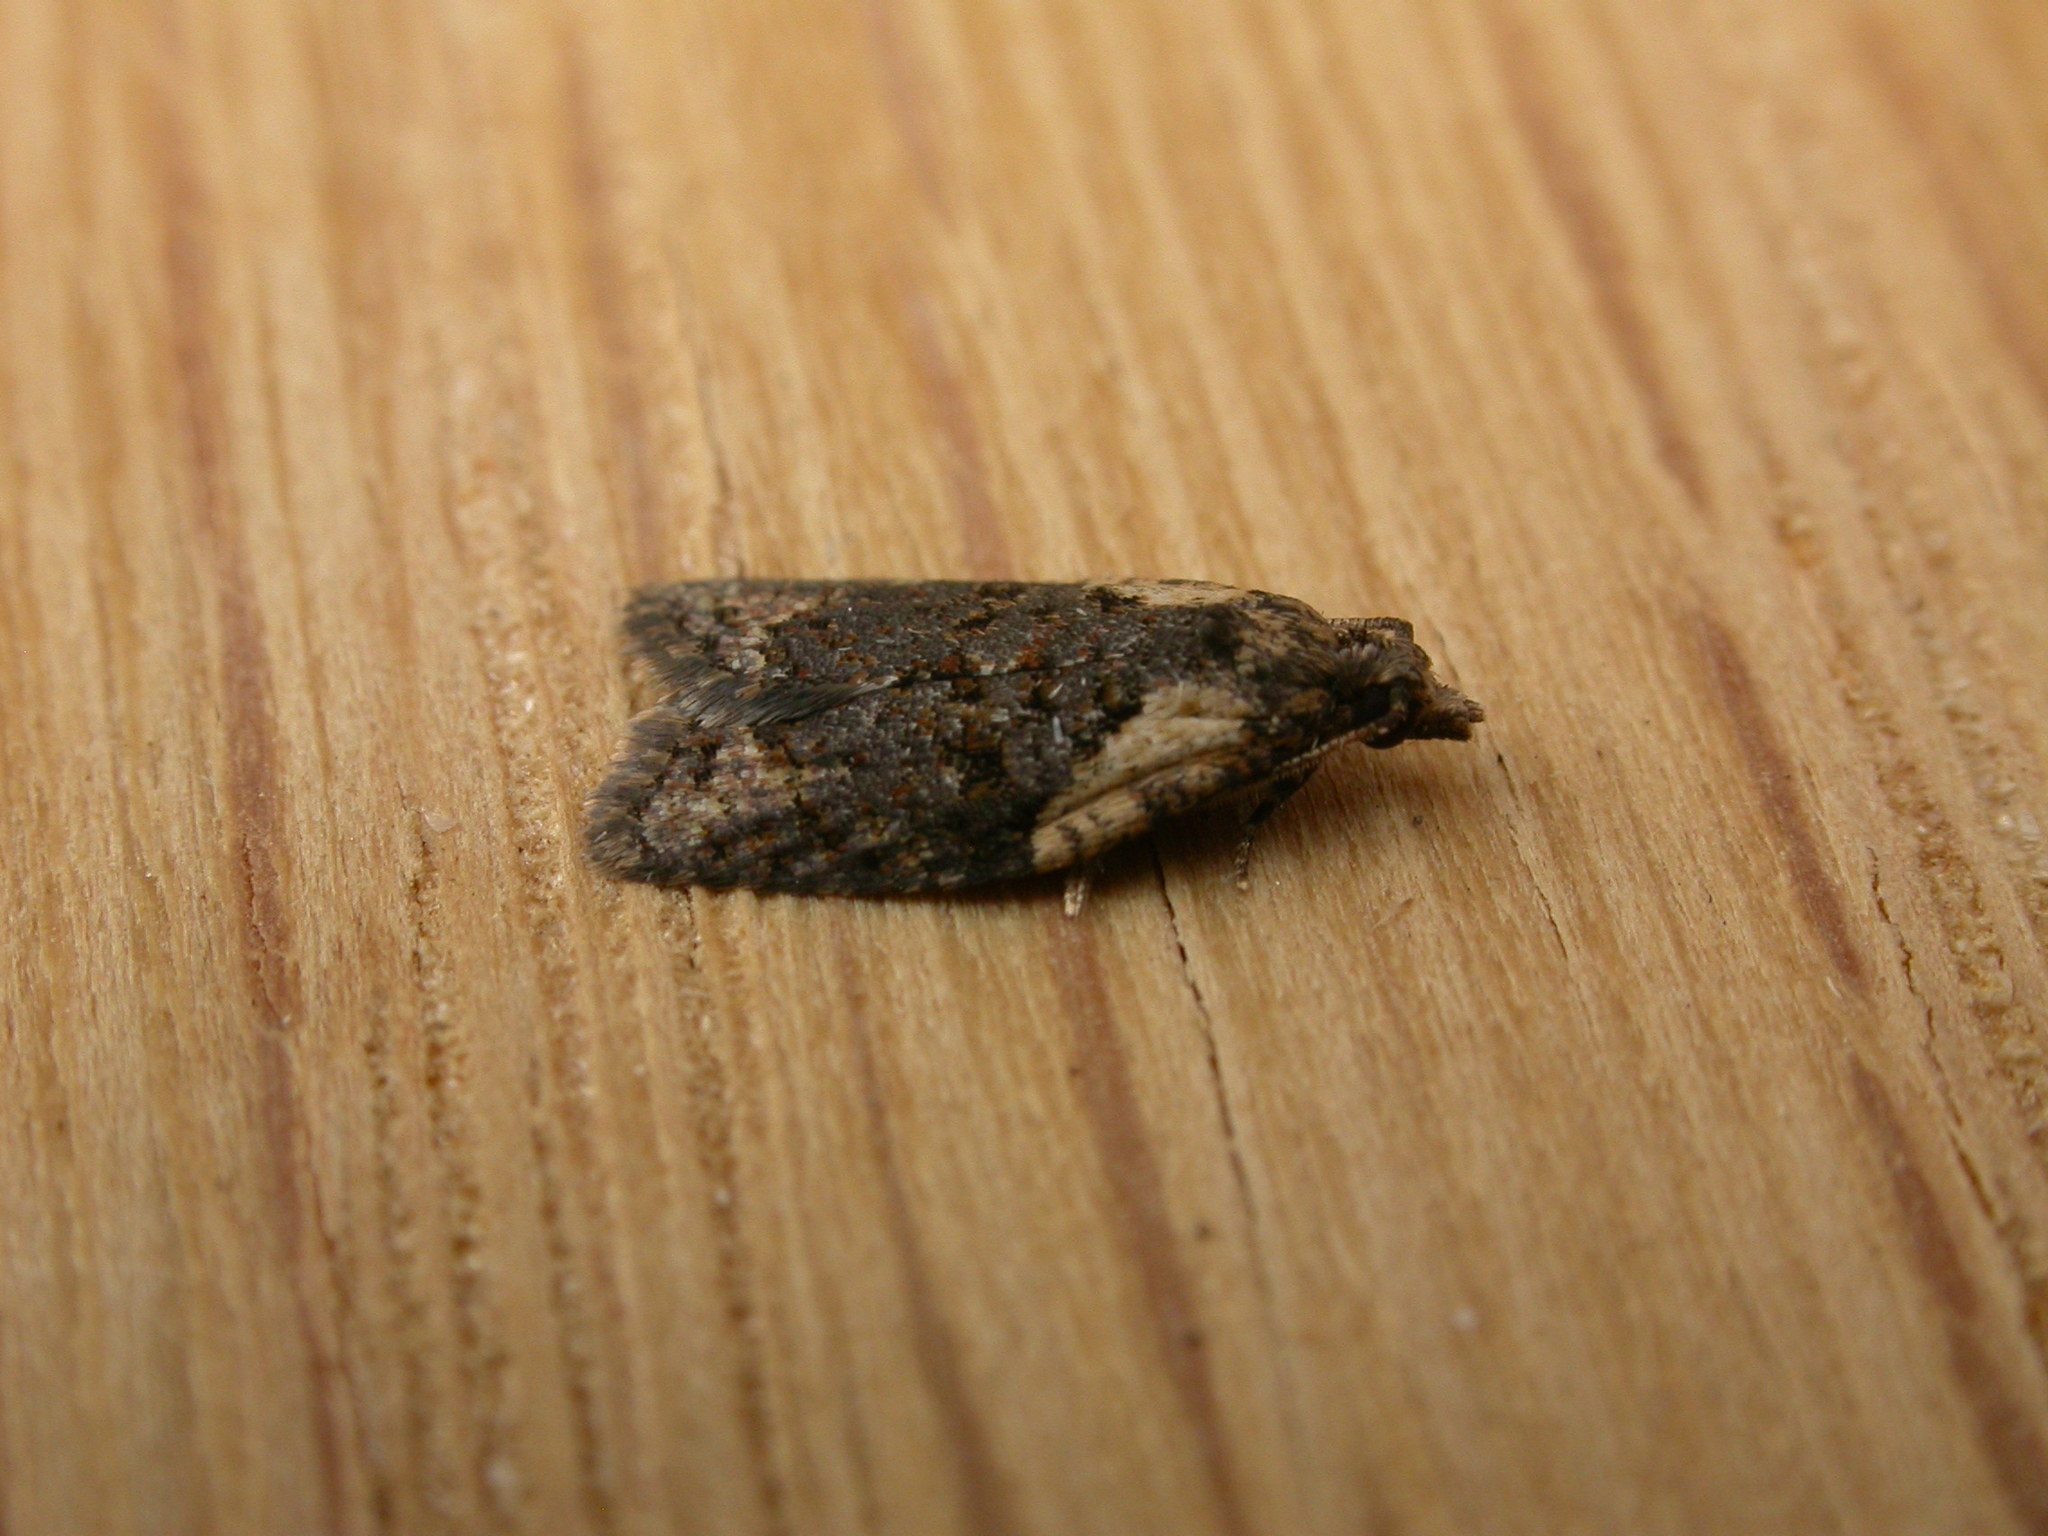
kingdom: Animalia
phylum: Arthropoda
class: Insecta
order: Lepidoptera
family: Tortricidae
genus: Capua
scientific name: Capua intractana
